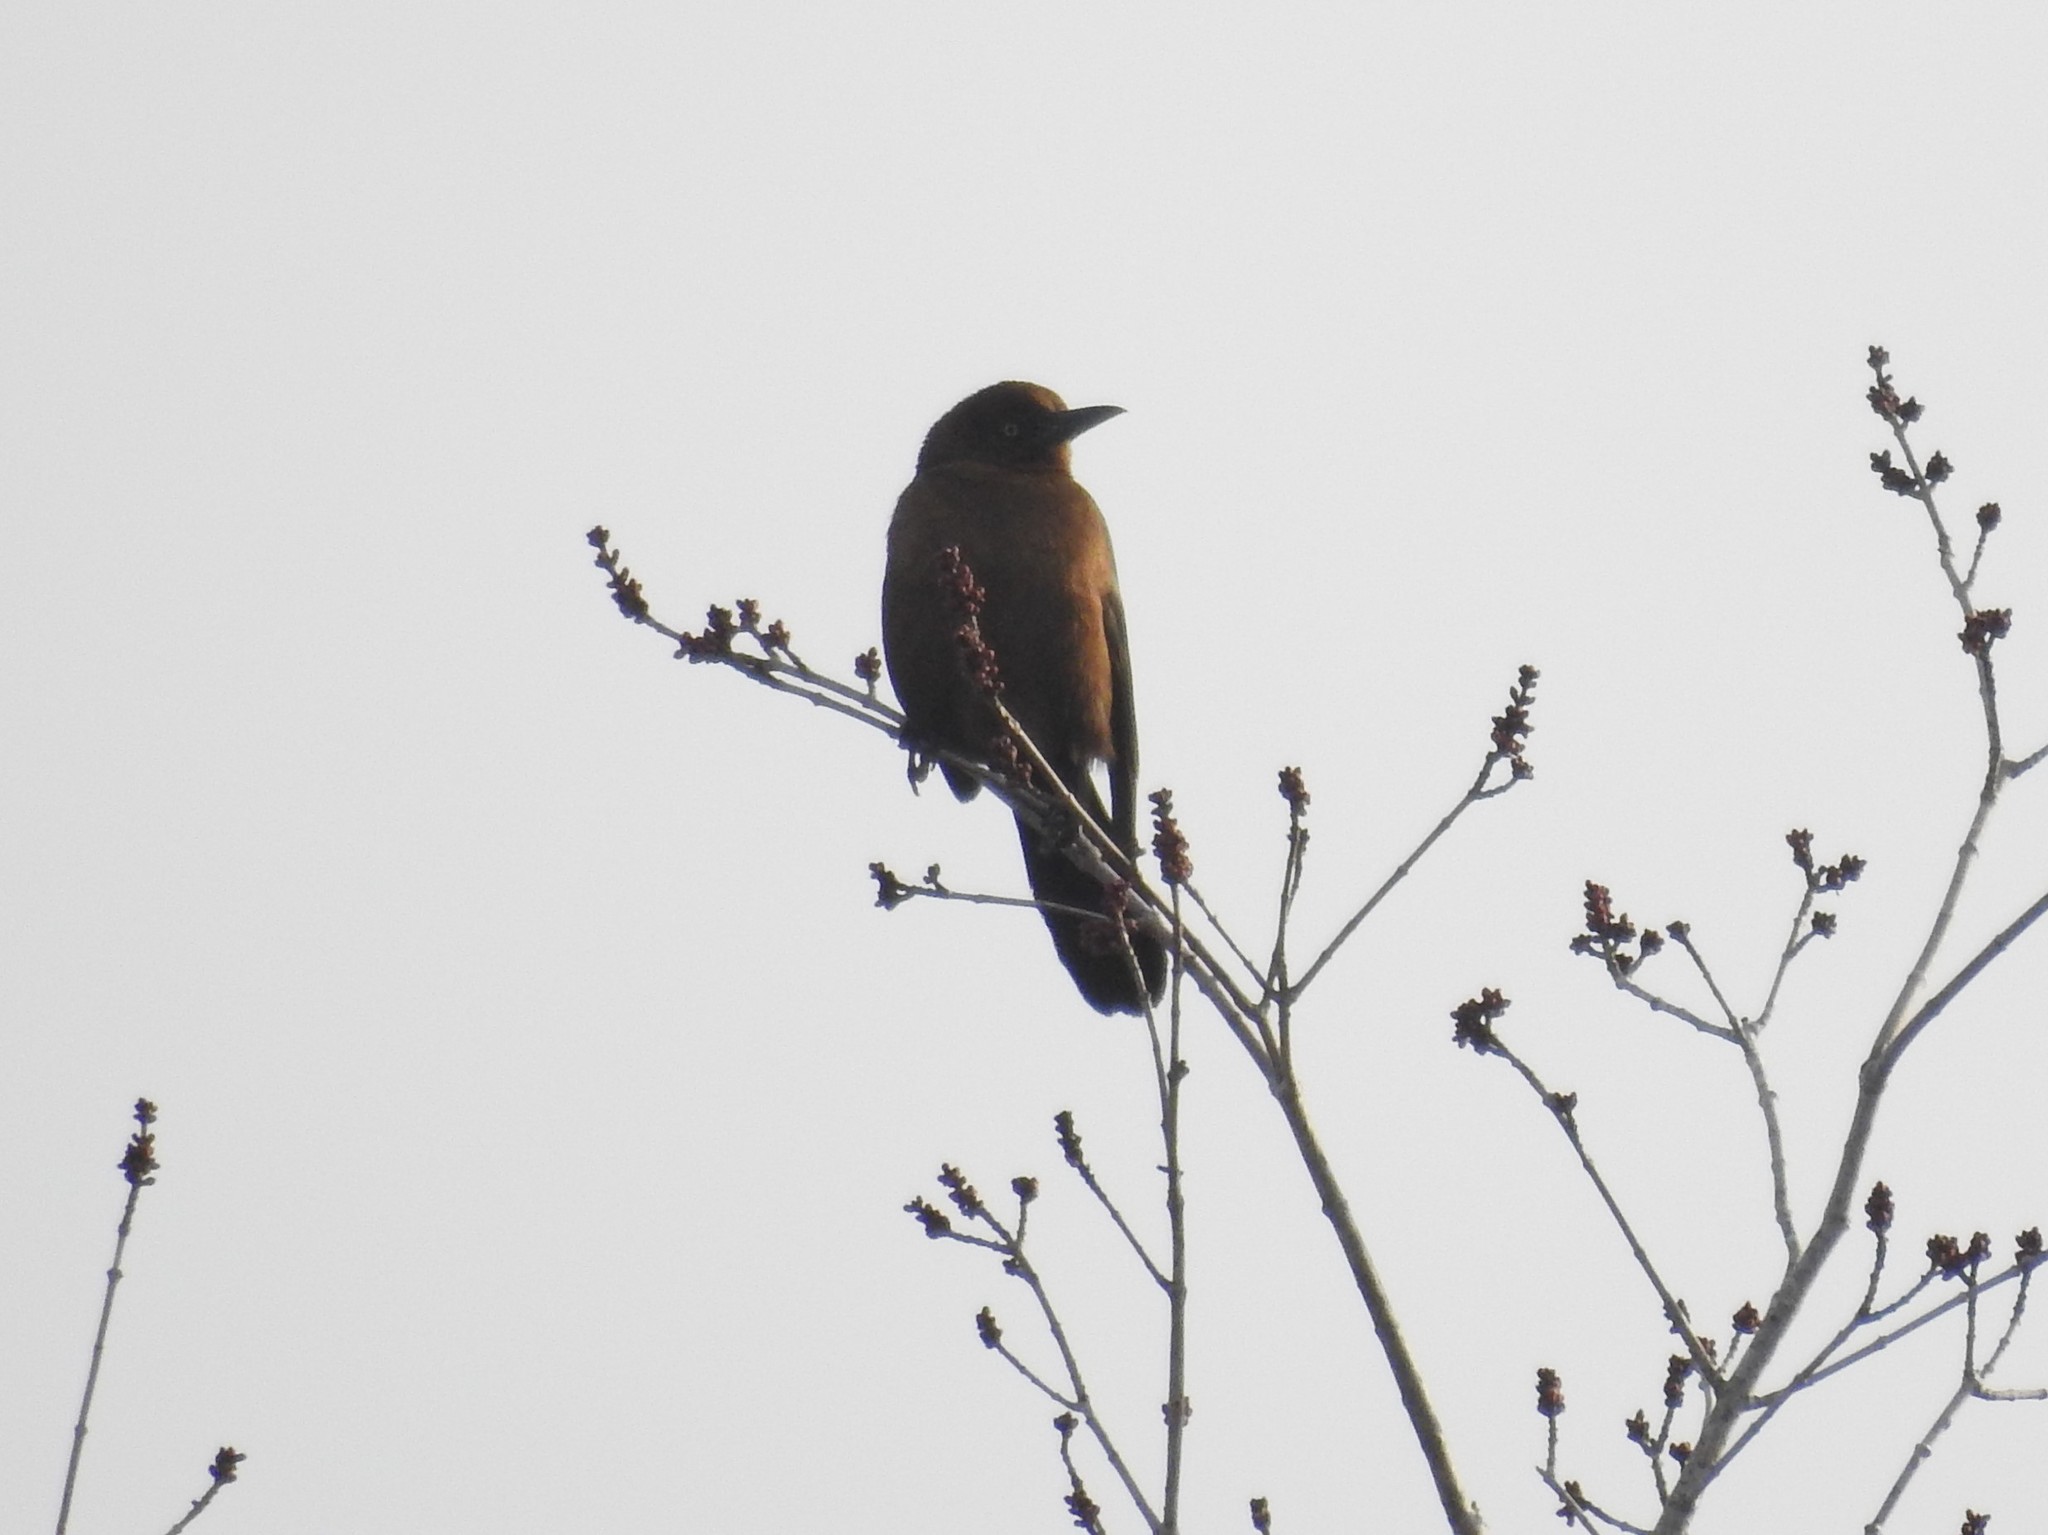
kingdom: Animalia
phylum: Chordata
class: Aves
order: Passeriformes
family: Icteridae
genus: Quiscalus
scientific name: Quiscalus major
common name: Boat-tailed grackle
